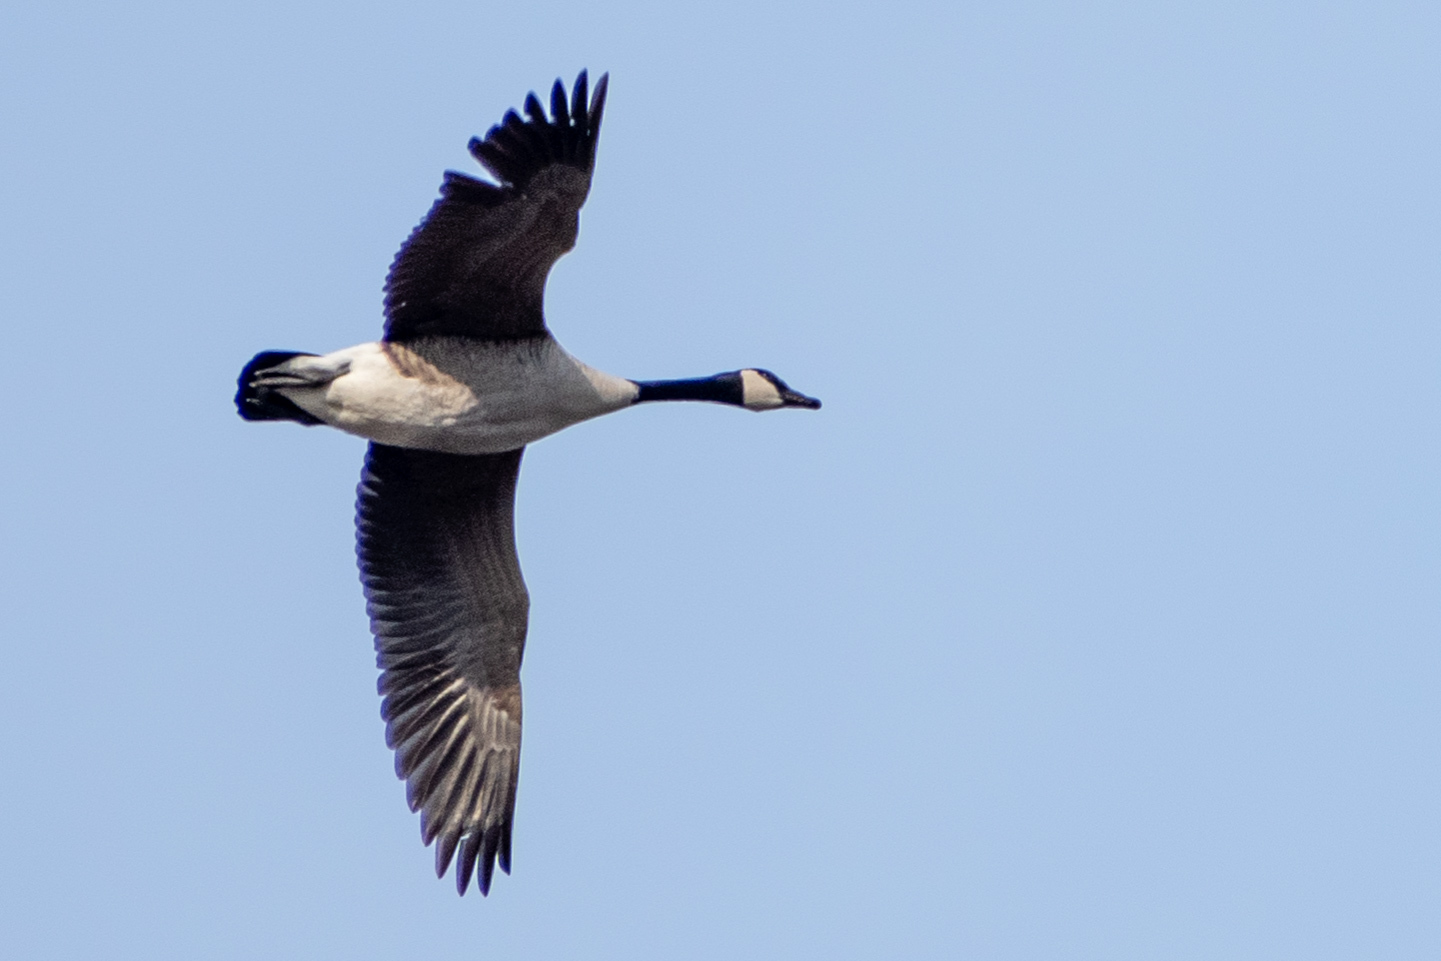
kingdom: Animalia
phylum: Chordata
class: Aves
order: Anseriformes
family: Anatidae
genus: Branta
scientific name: Branta canadensis
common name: Canada goose
